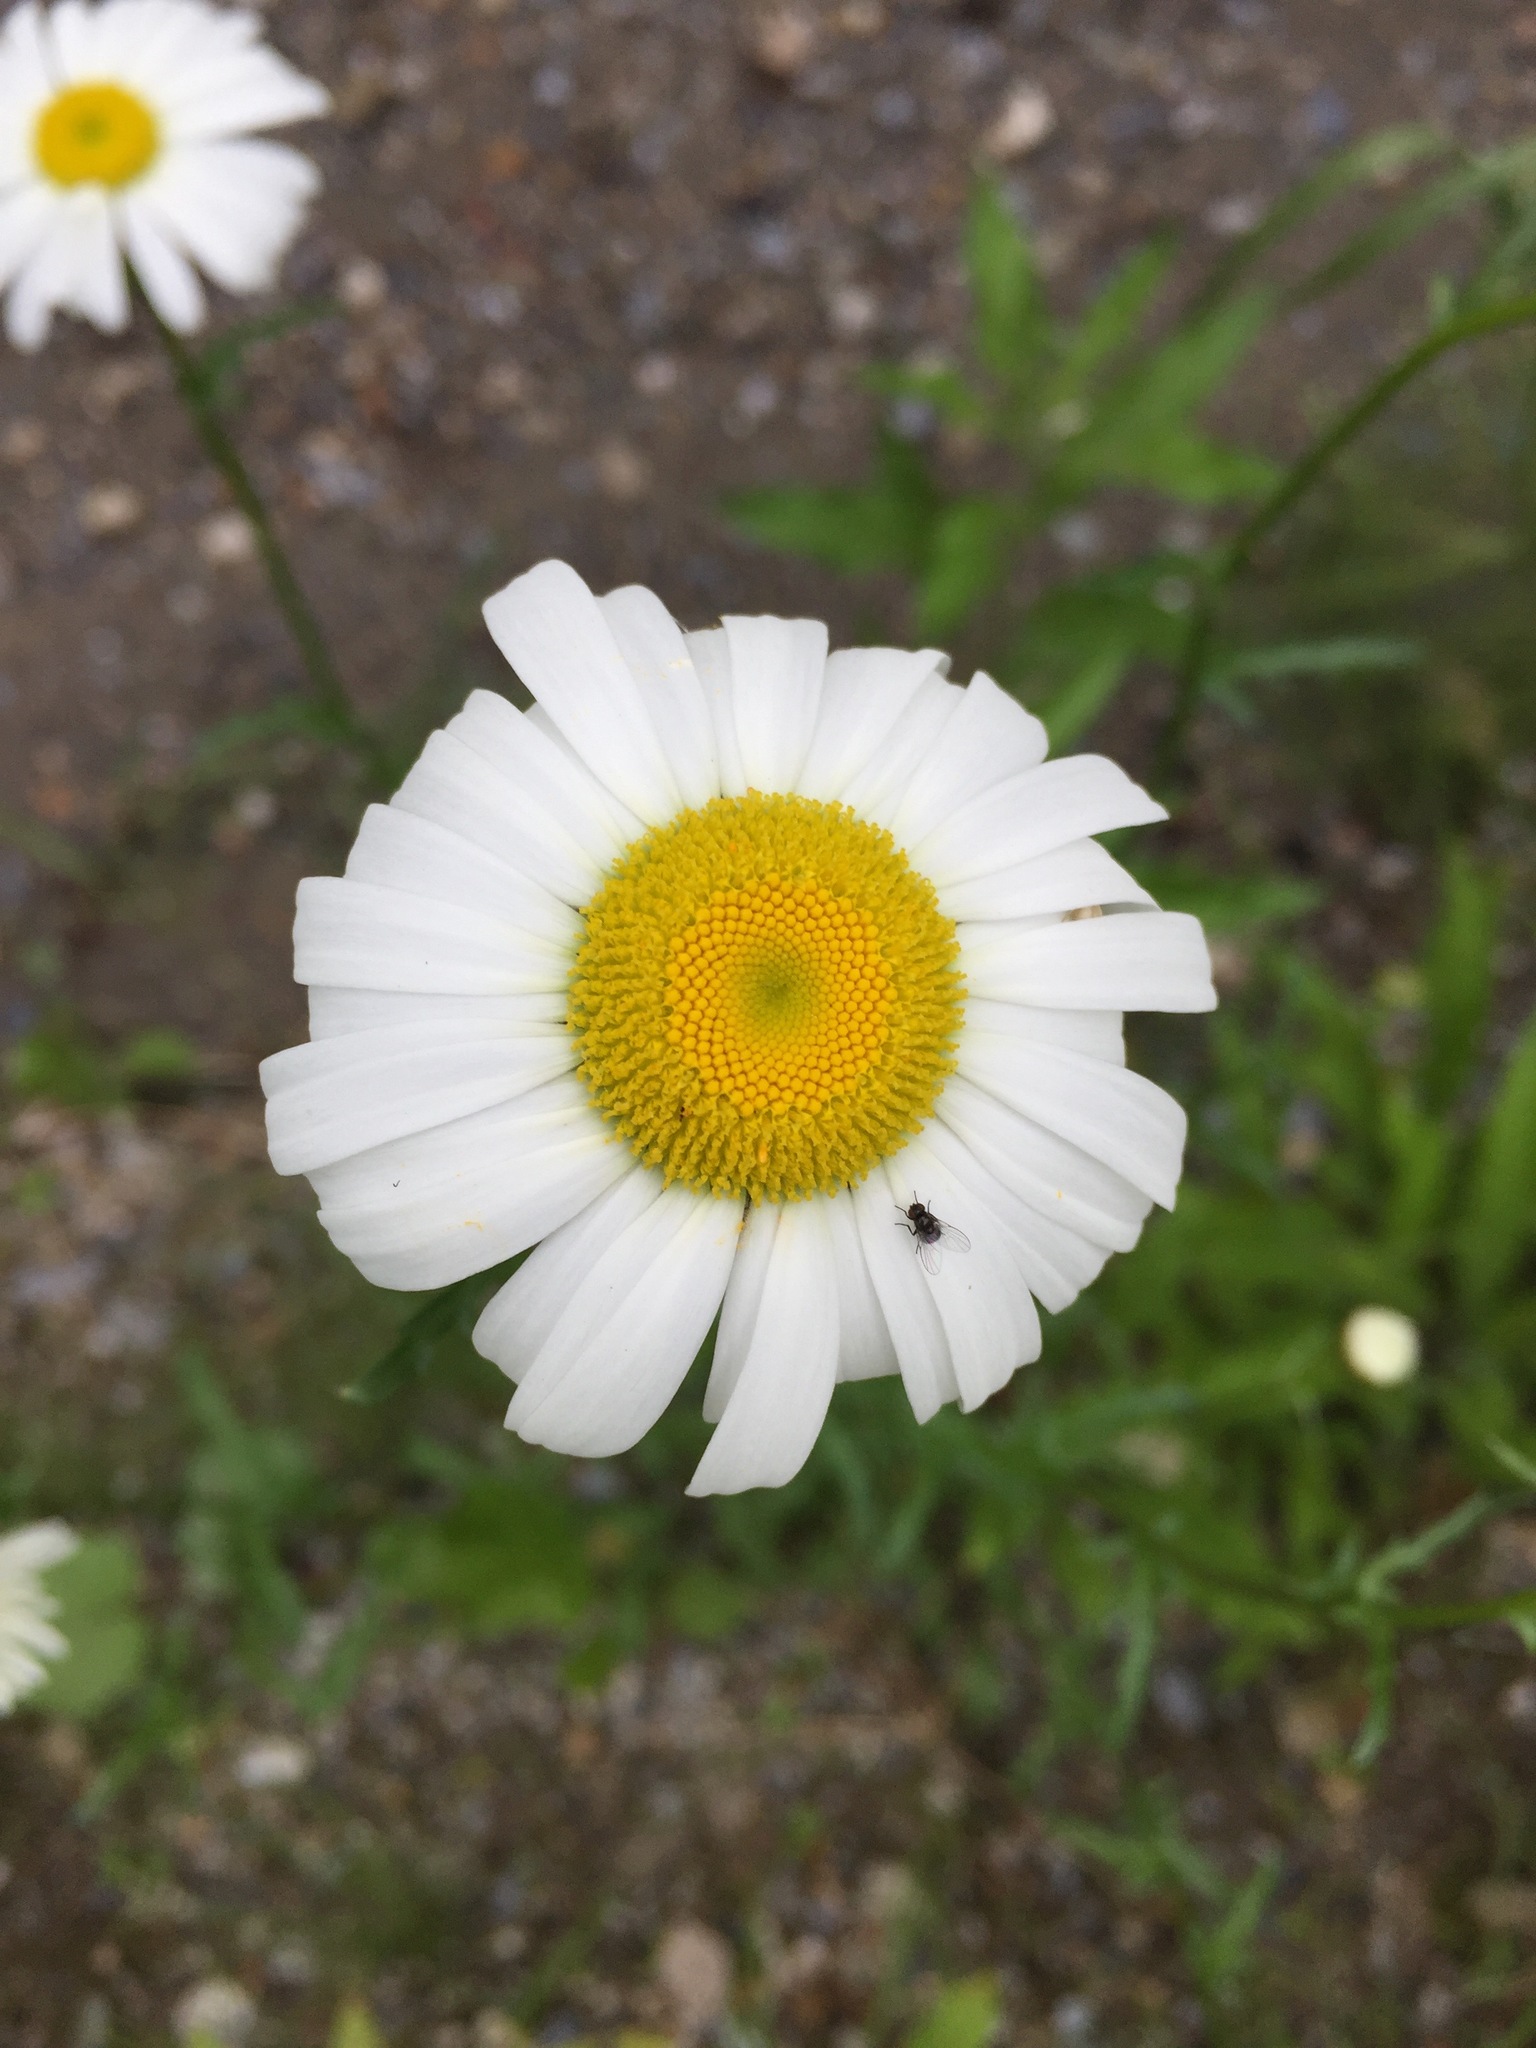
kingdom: Plantae
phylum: Tracheophyta
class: Magnoliopsida
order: Asterales
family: Asteraceae
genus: Leucanthemum
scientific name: Leucanthemum vulgare
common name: Oxeye daisy
